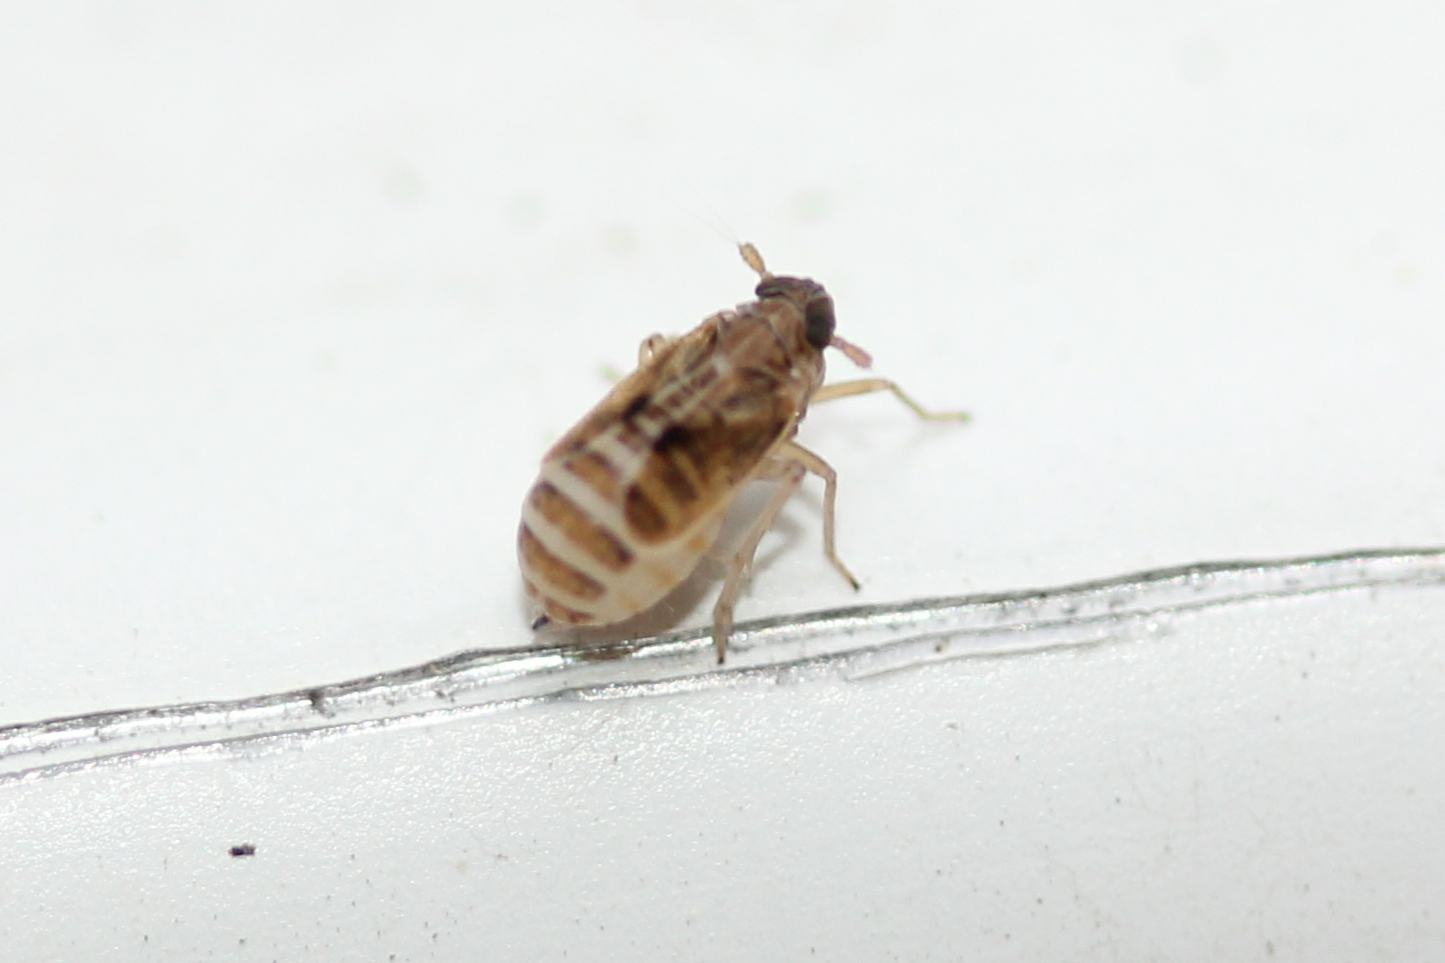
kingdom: Animalia
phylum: Arthropoda
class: Insecta
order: Hemiptera
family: Delphacidae
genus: Chionomus
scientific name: Chionomus
